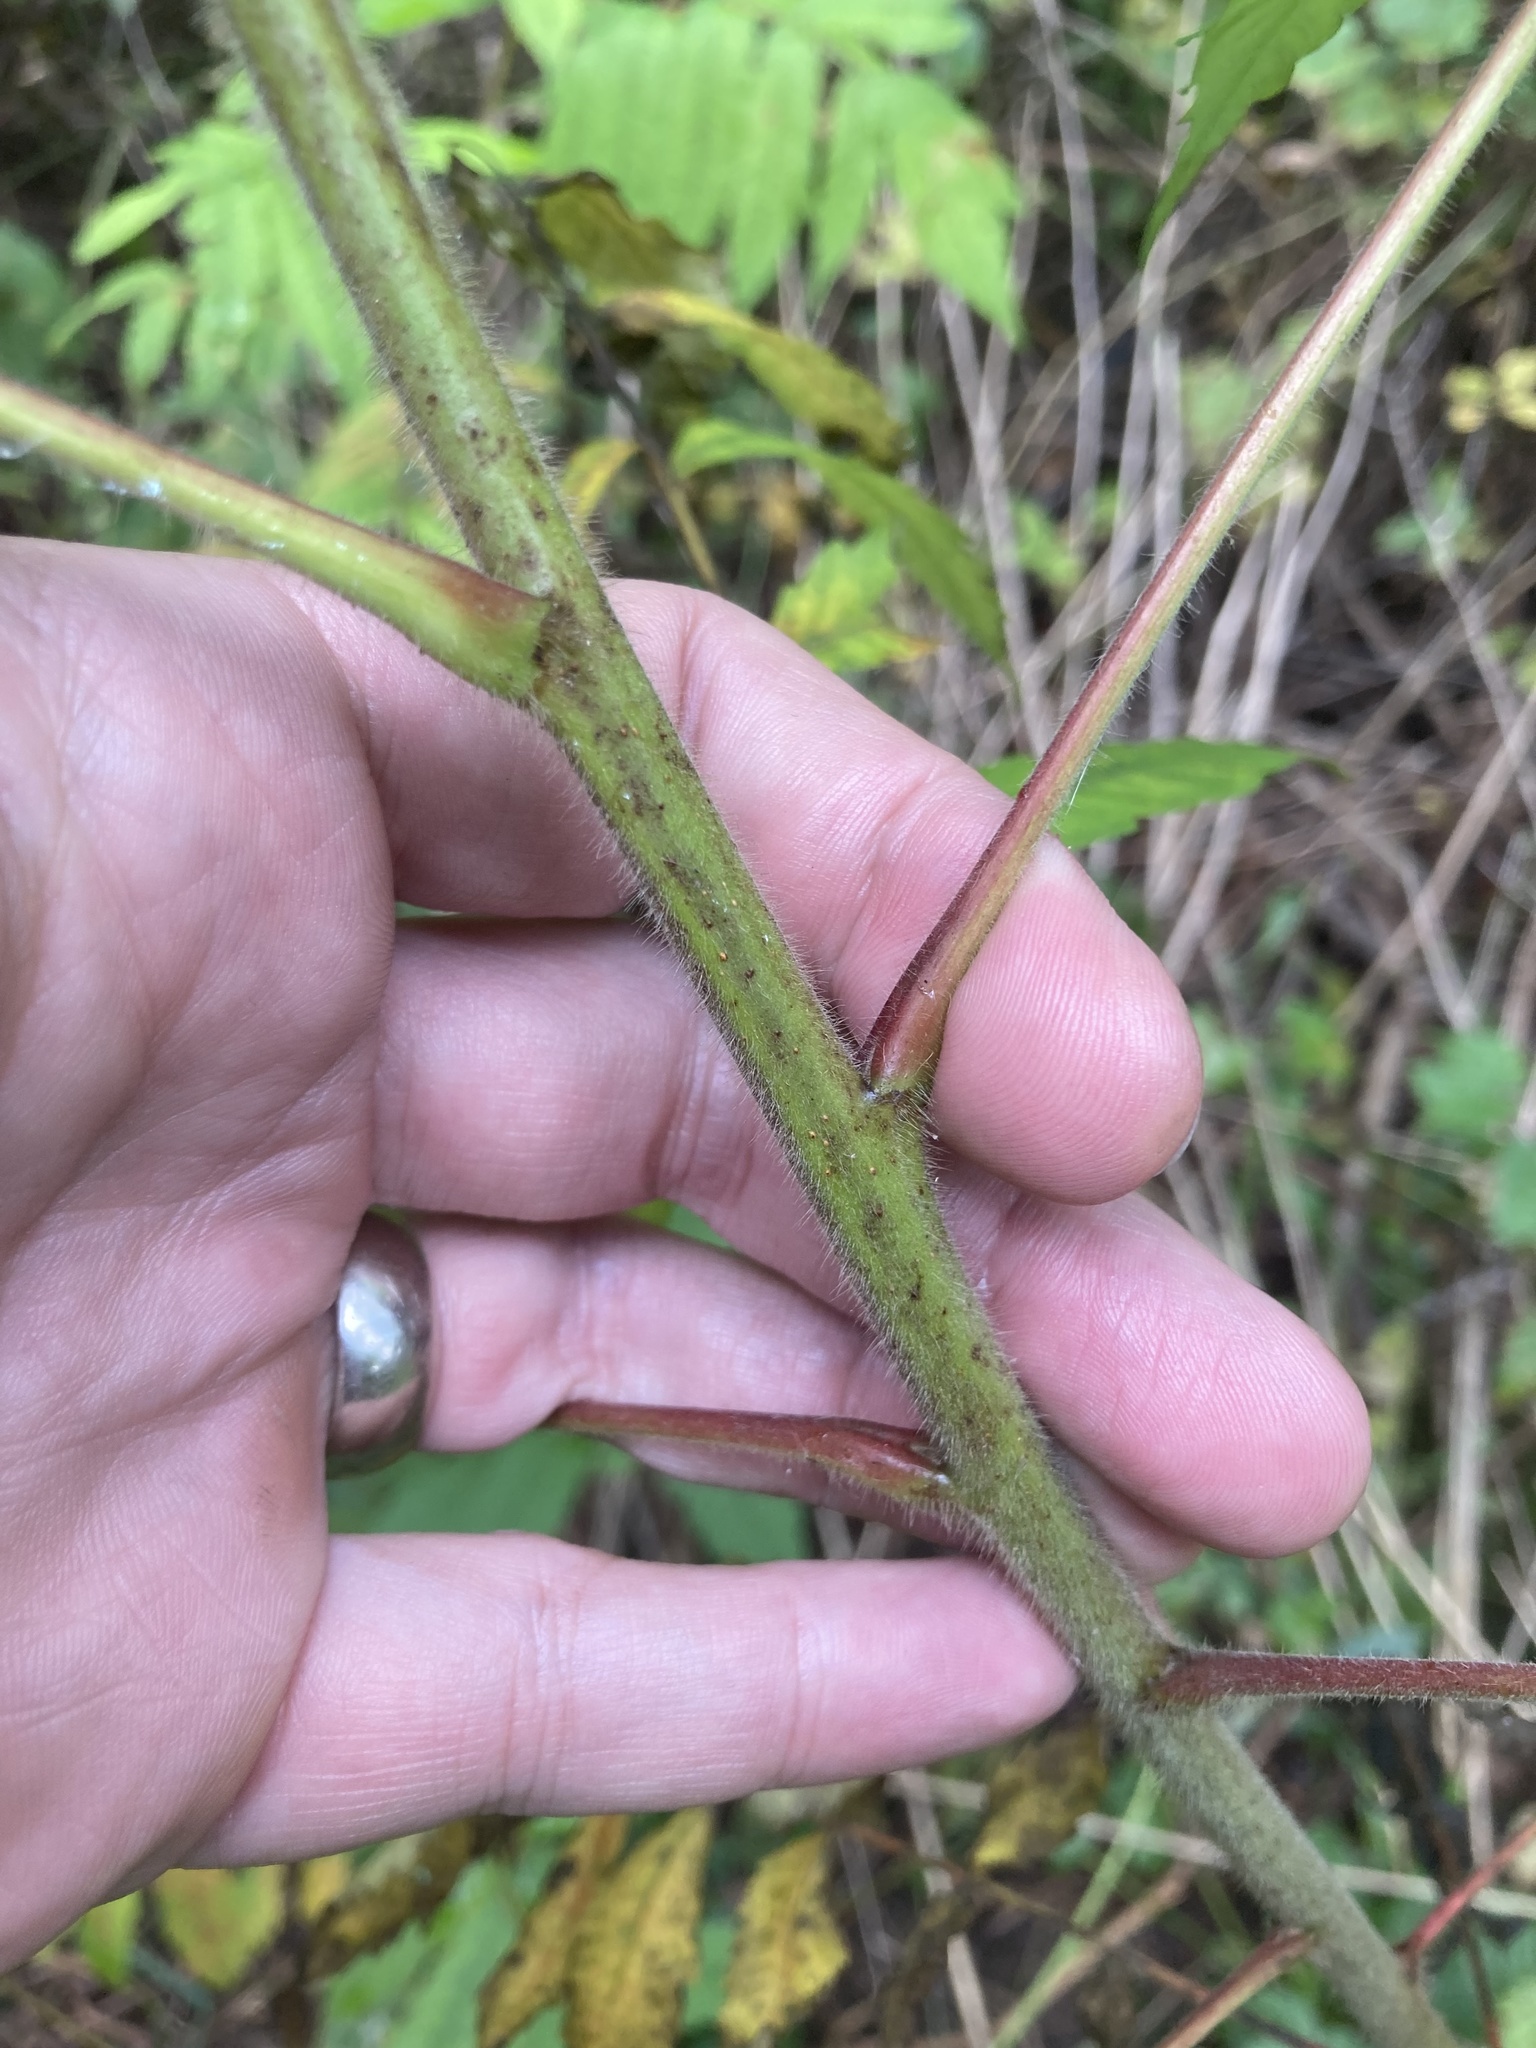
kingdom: Plantae
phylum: Tracheophyta
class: Magnoliopsida
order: Sapindales
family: Anacardiaceae
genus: Rhus
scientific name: Rhus typhina
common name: Staghorn sumac
